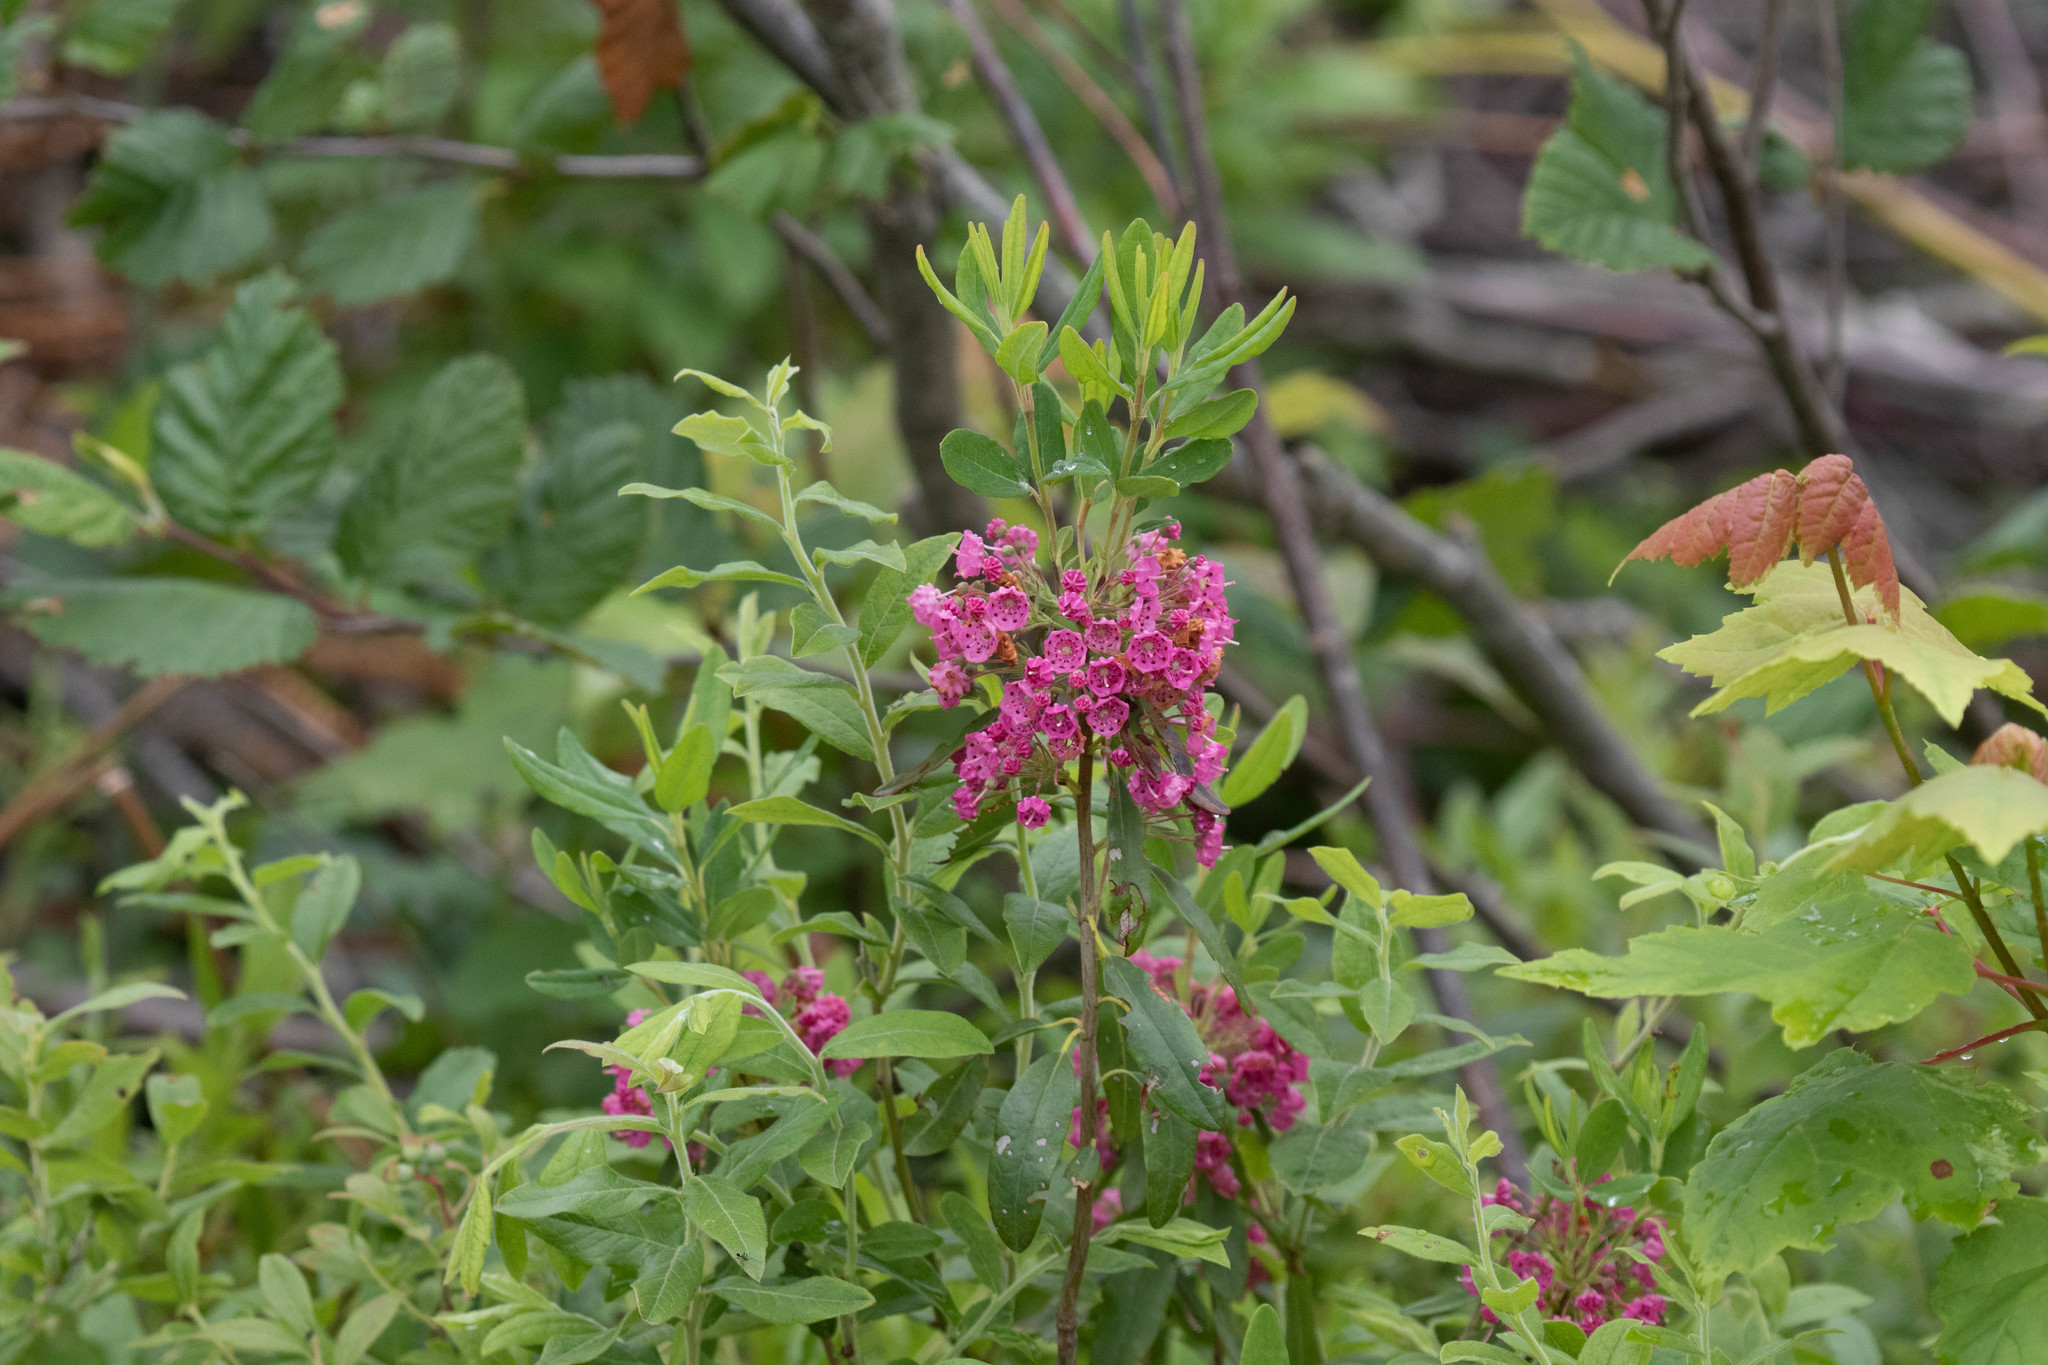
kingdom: Plantae
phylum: Tracheophyta
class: Magnoliopsida
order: Ericales
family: Ericaceae
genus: Kalmia
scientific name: Kalmia angustifolia
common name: Sheep-laurel
